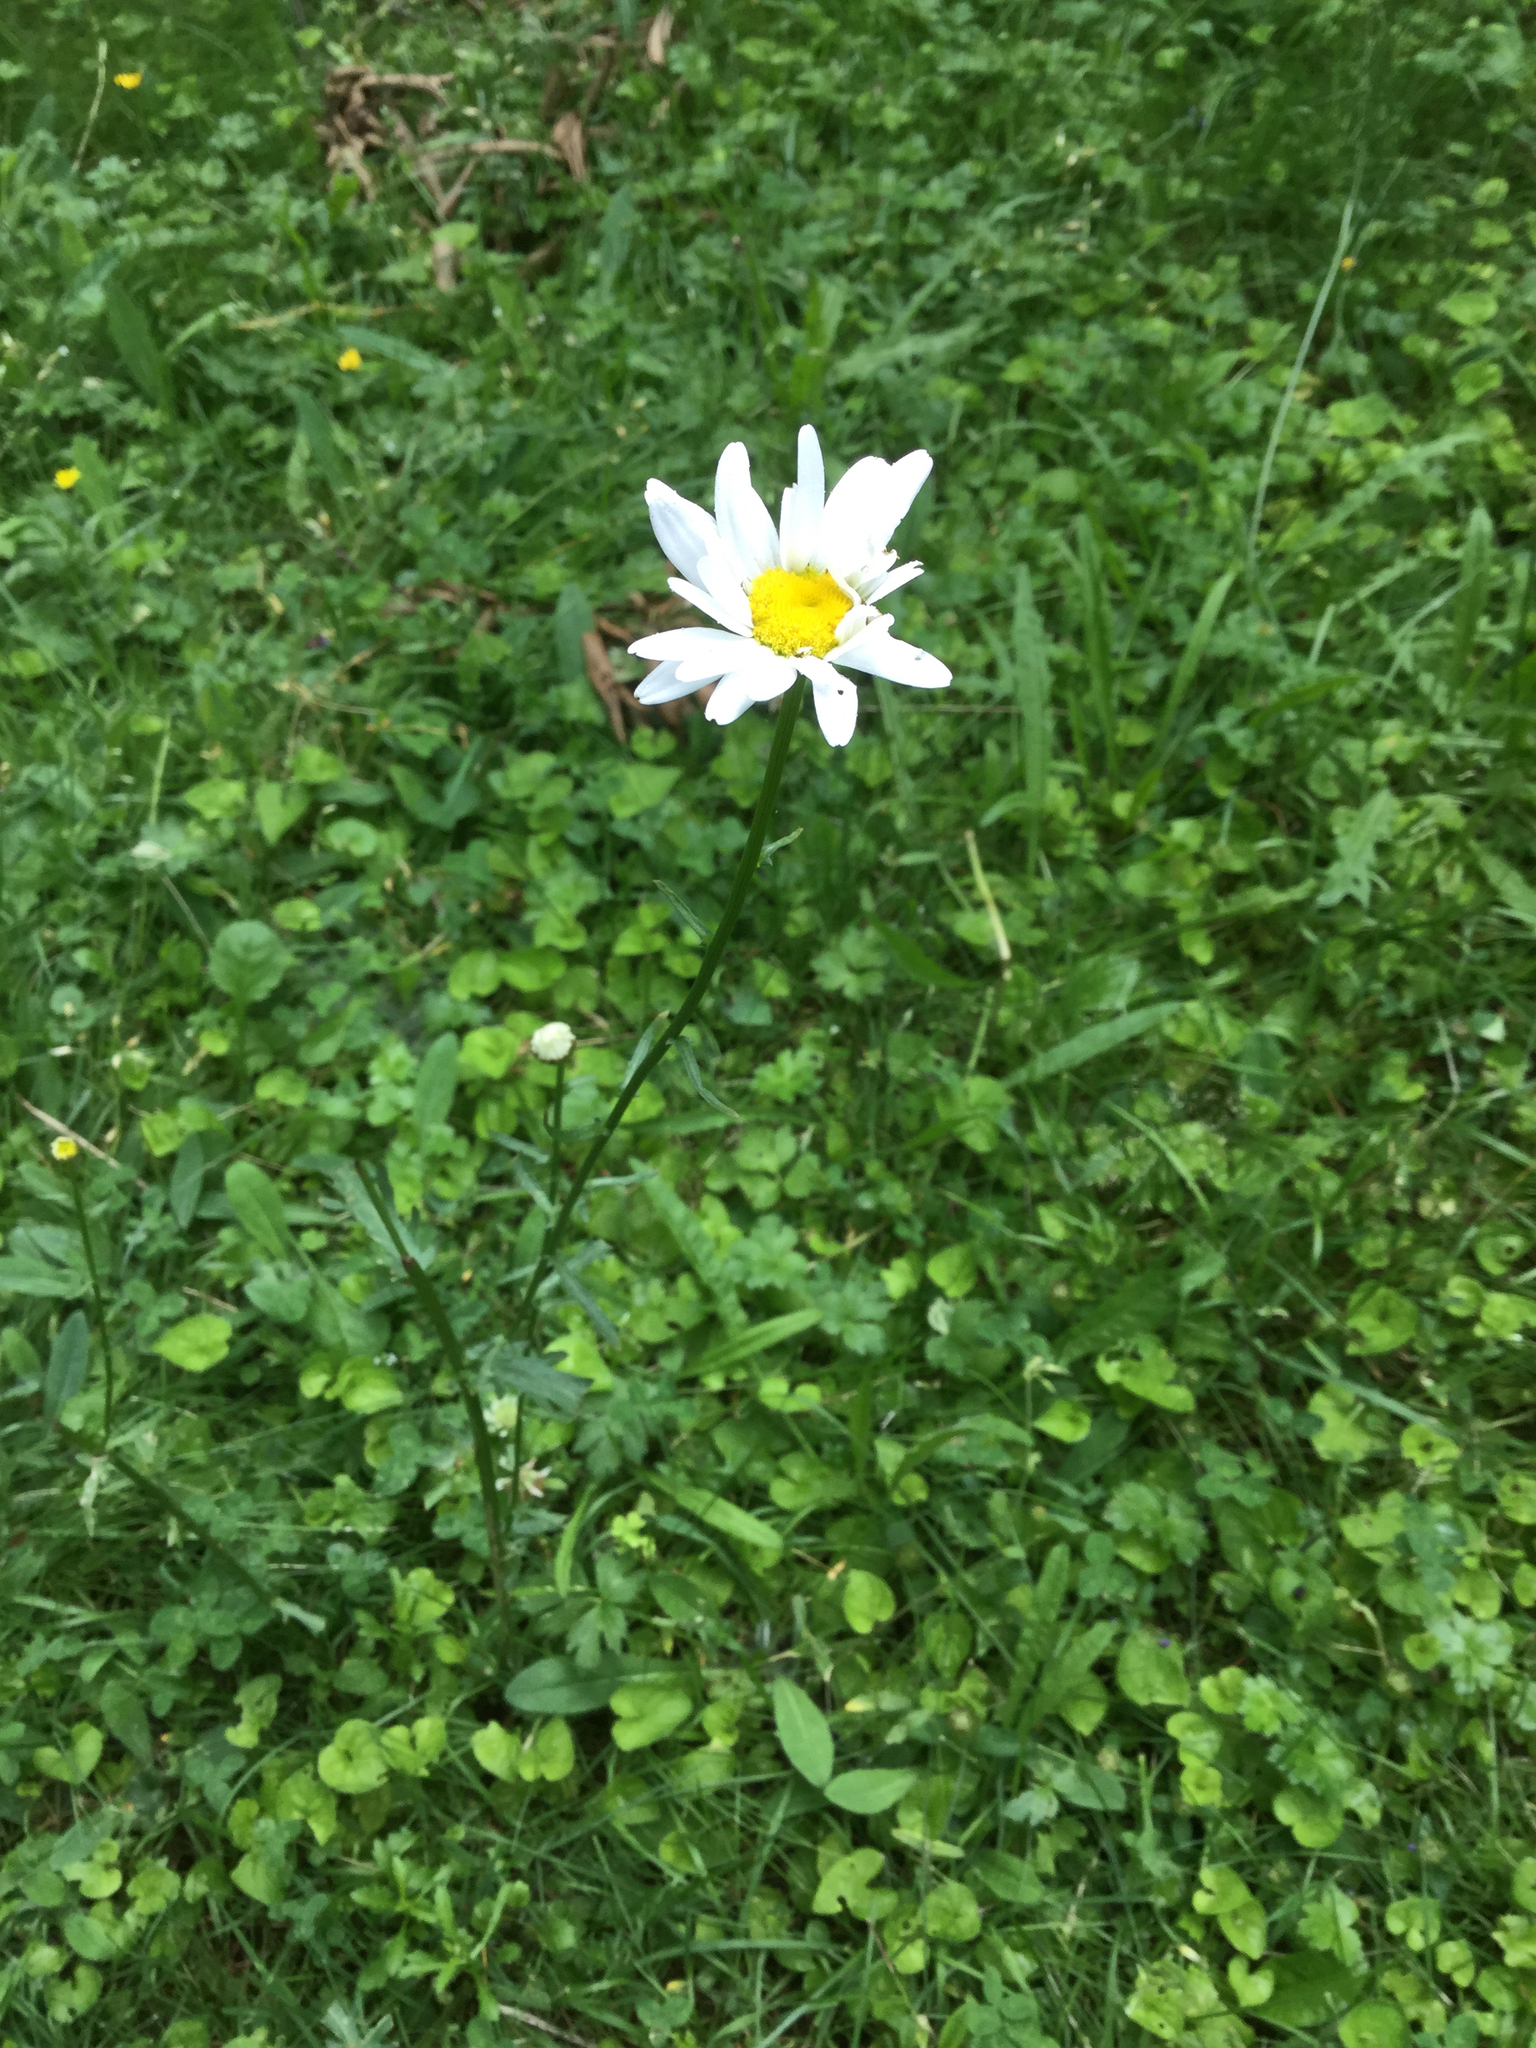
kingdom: Plantae
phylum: Tracheophyta
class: Magnoliopsida
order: Asterales
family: Asteraceae
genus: Leucanthemum
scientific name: Leucanthemum vulgare
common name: Oxeye daisy
